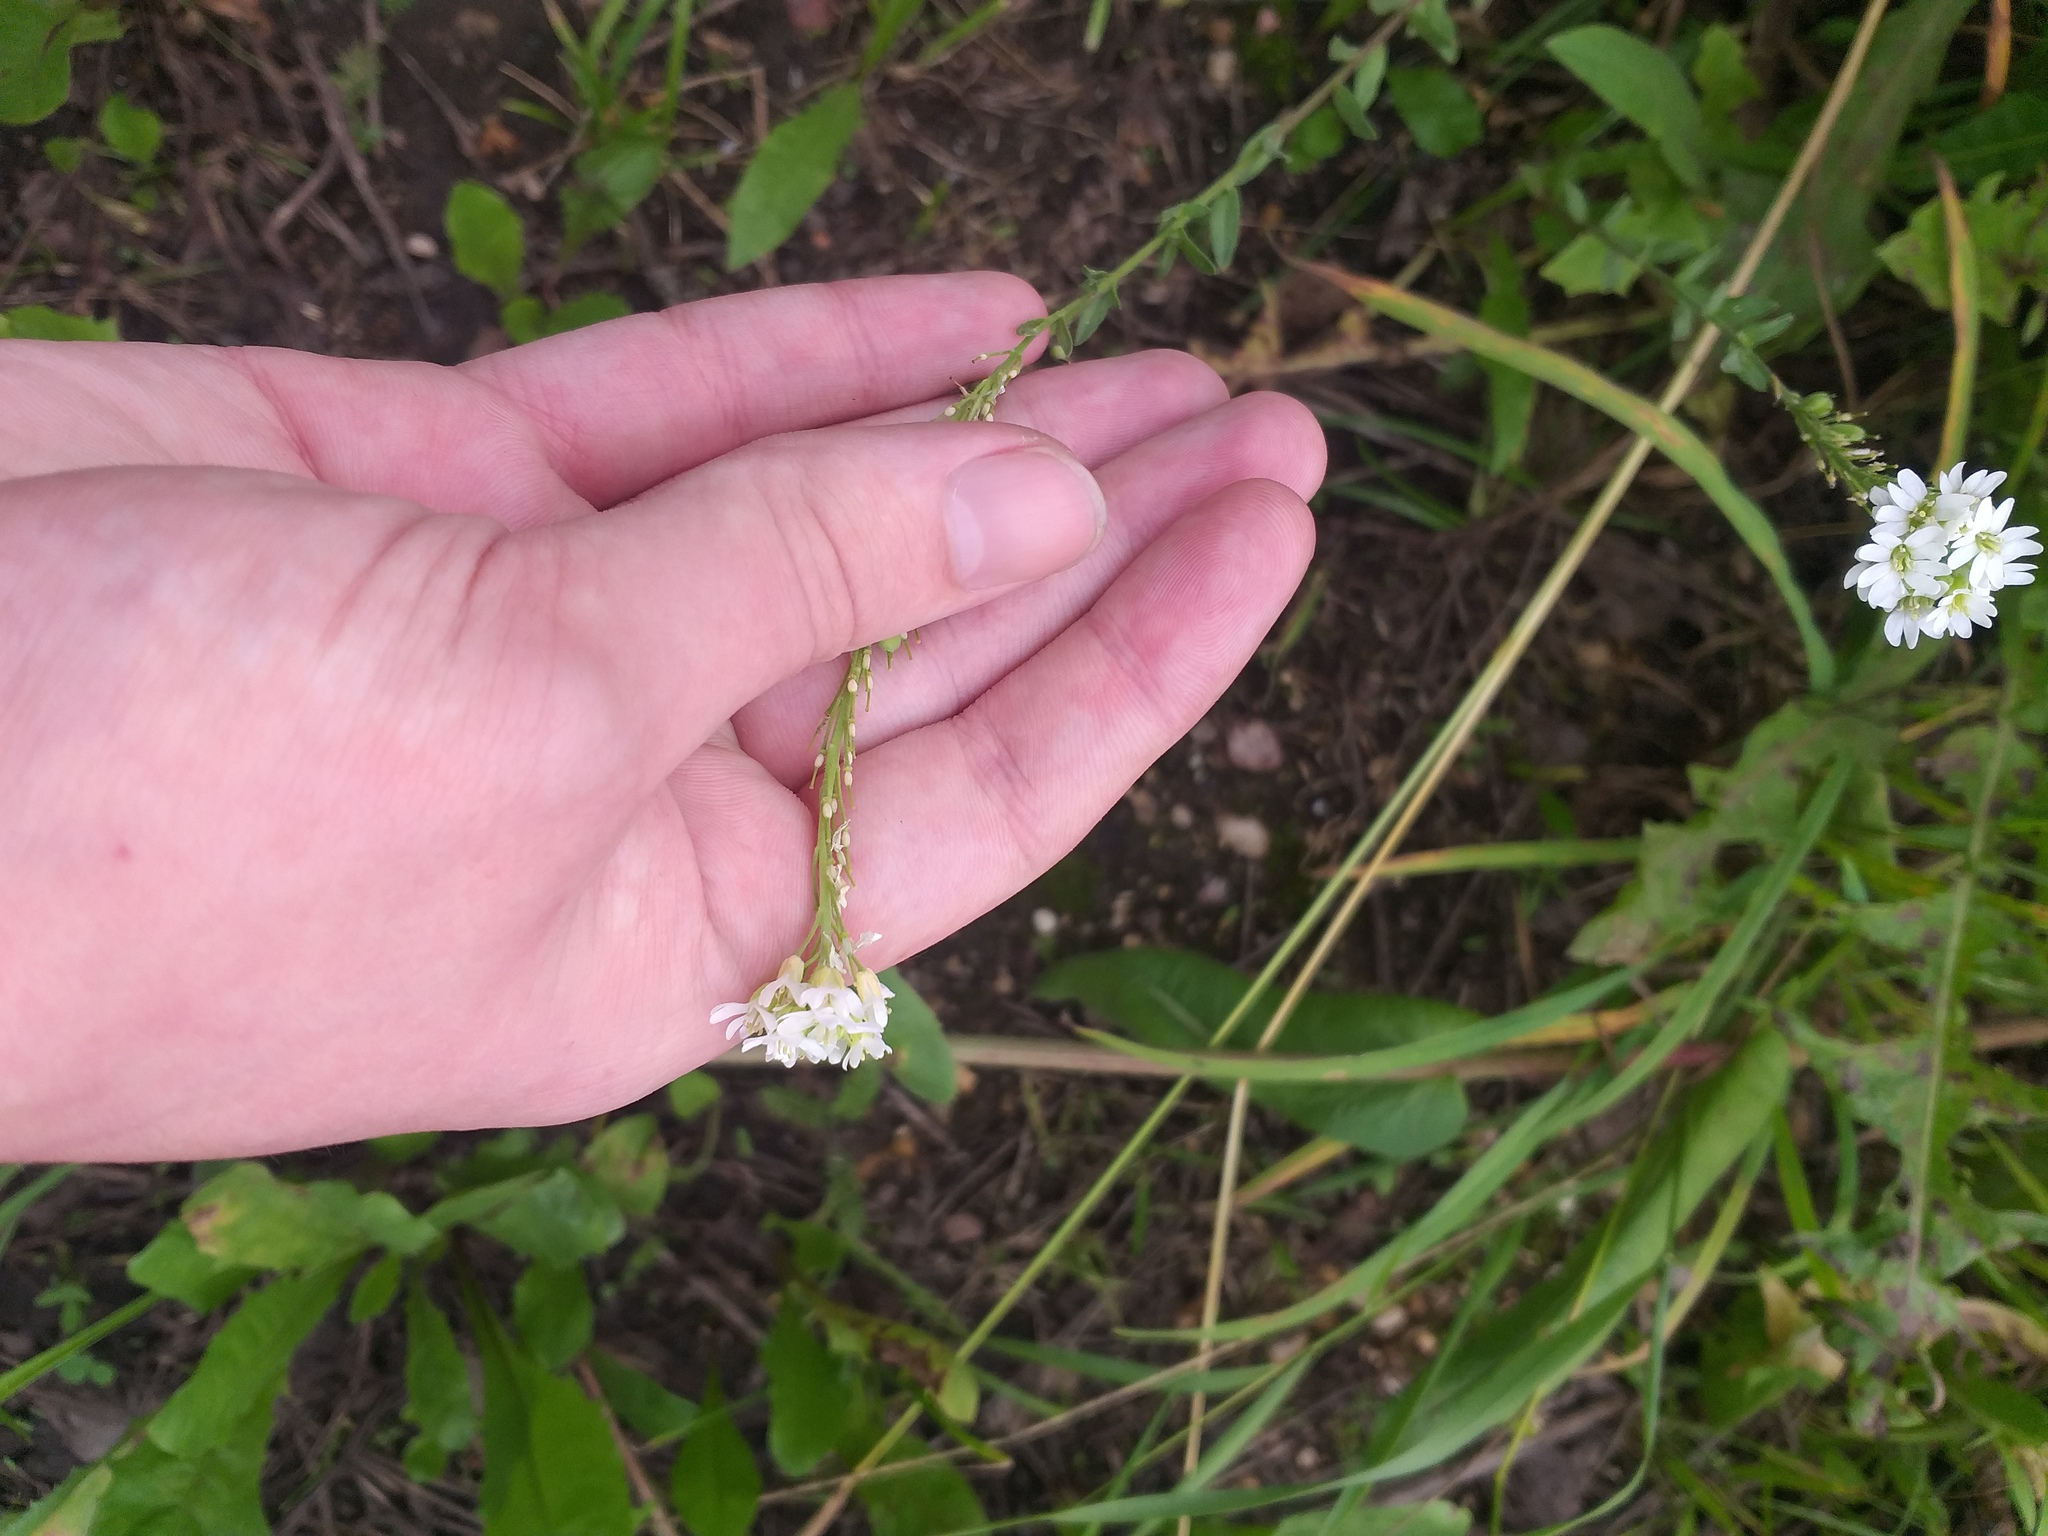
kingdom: Plantae
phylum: Tracheophyta
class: Magnoliopsida
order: Brassicales
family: Brassicaceae
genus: Berteroa
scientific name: Berteroa incana
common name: Hoary alison
